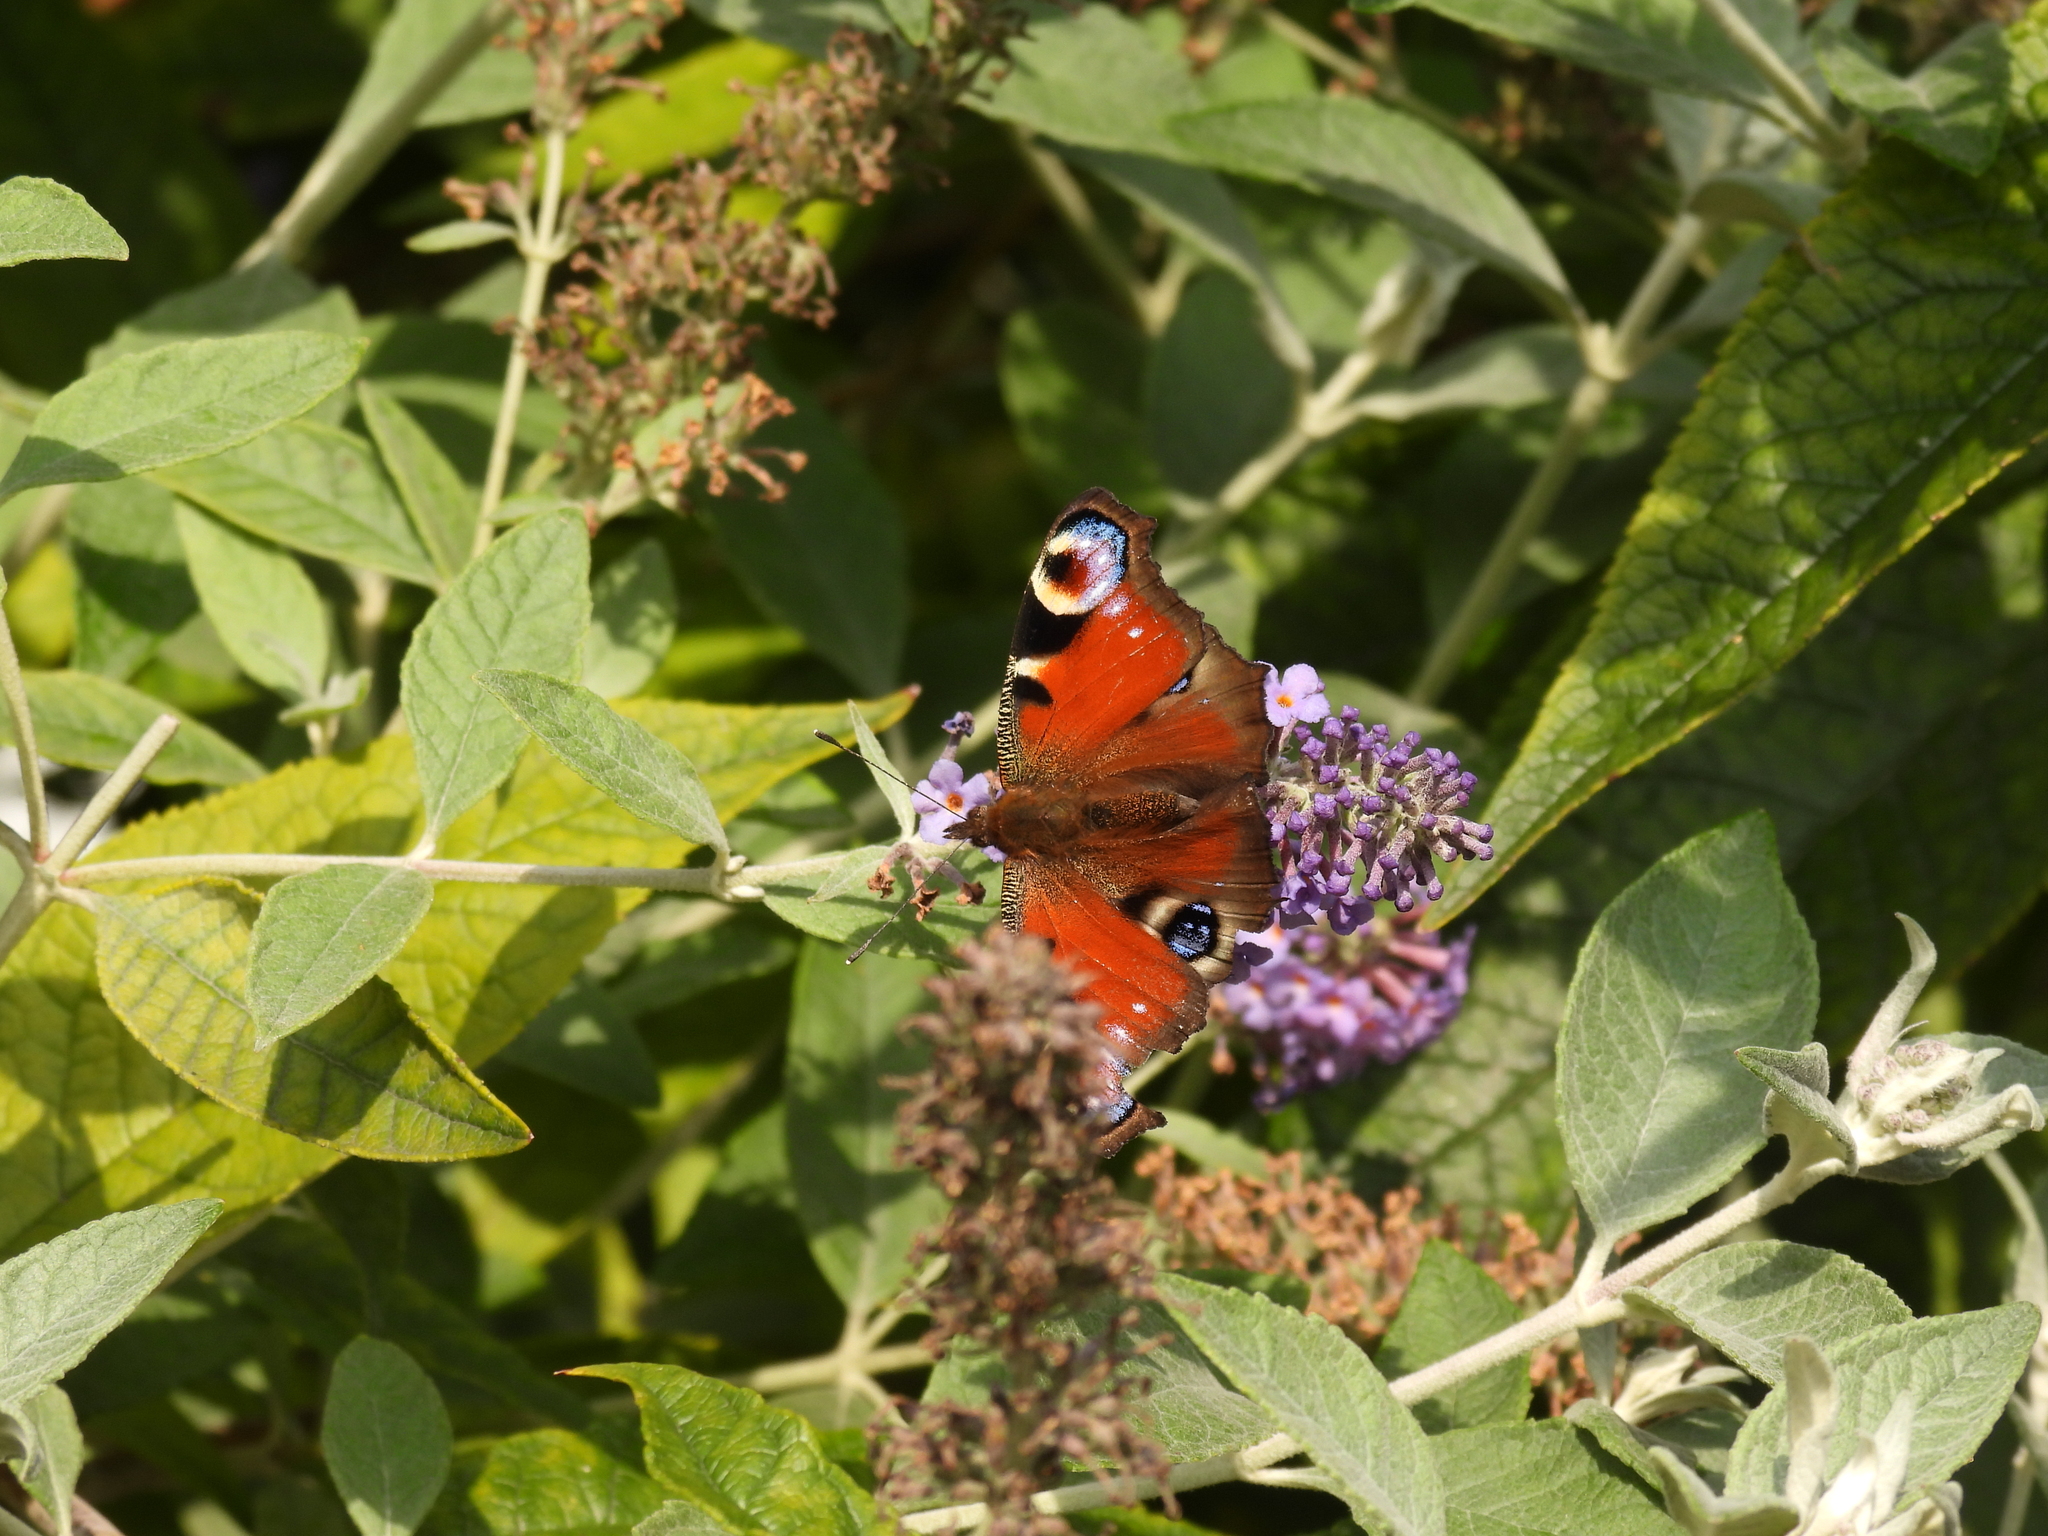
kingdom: Animalia
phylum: Arthropoda
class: Insecta
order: Lepidoptera
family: Nymphalidae
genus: Aglais
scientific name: Aglais io
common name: Peacock
